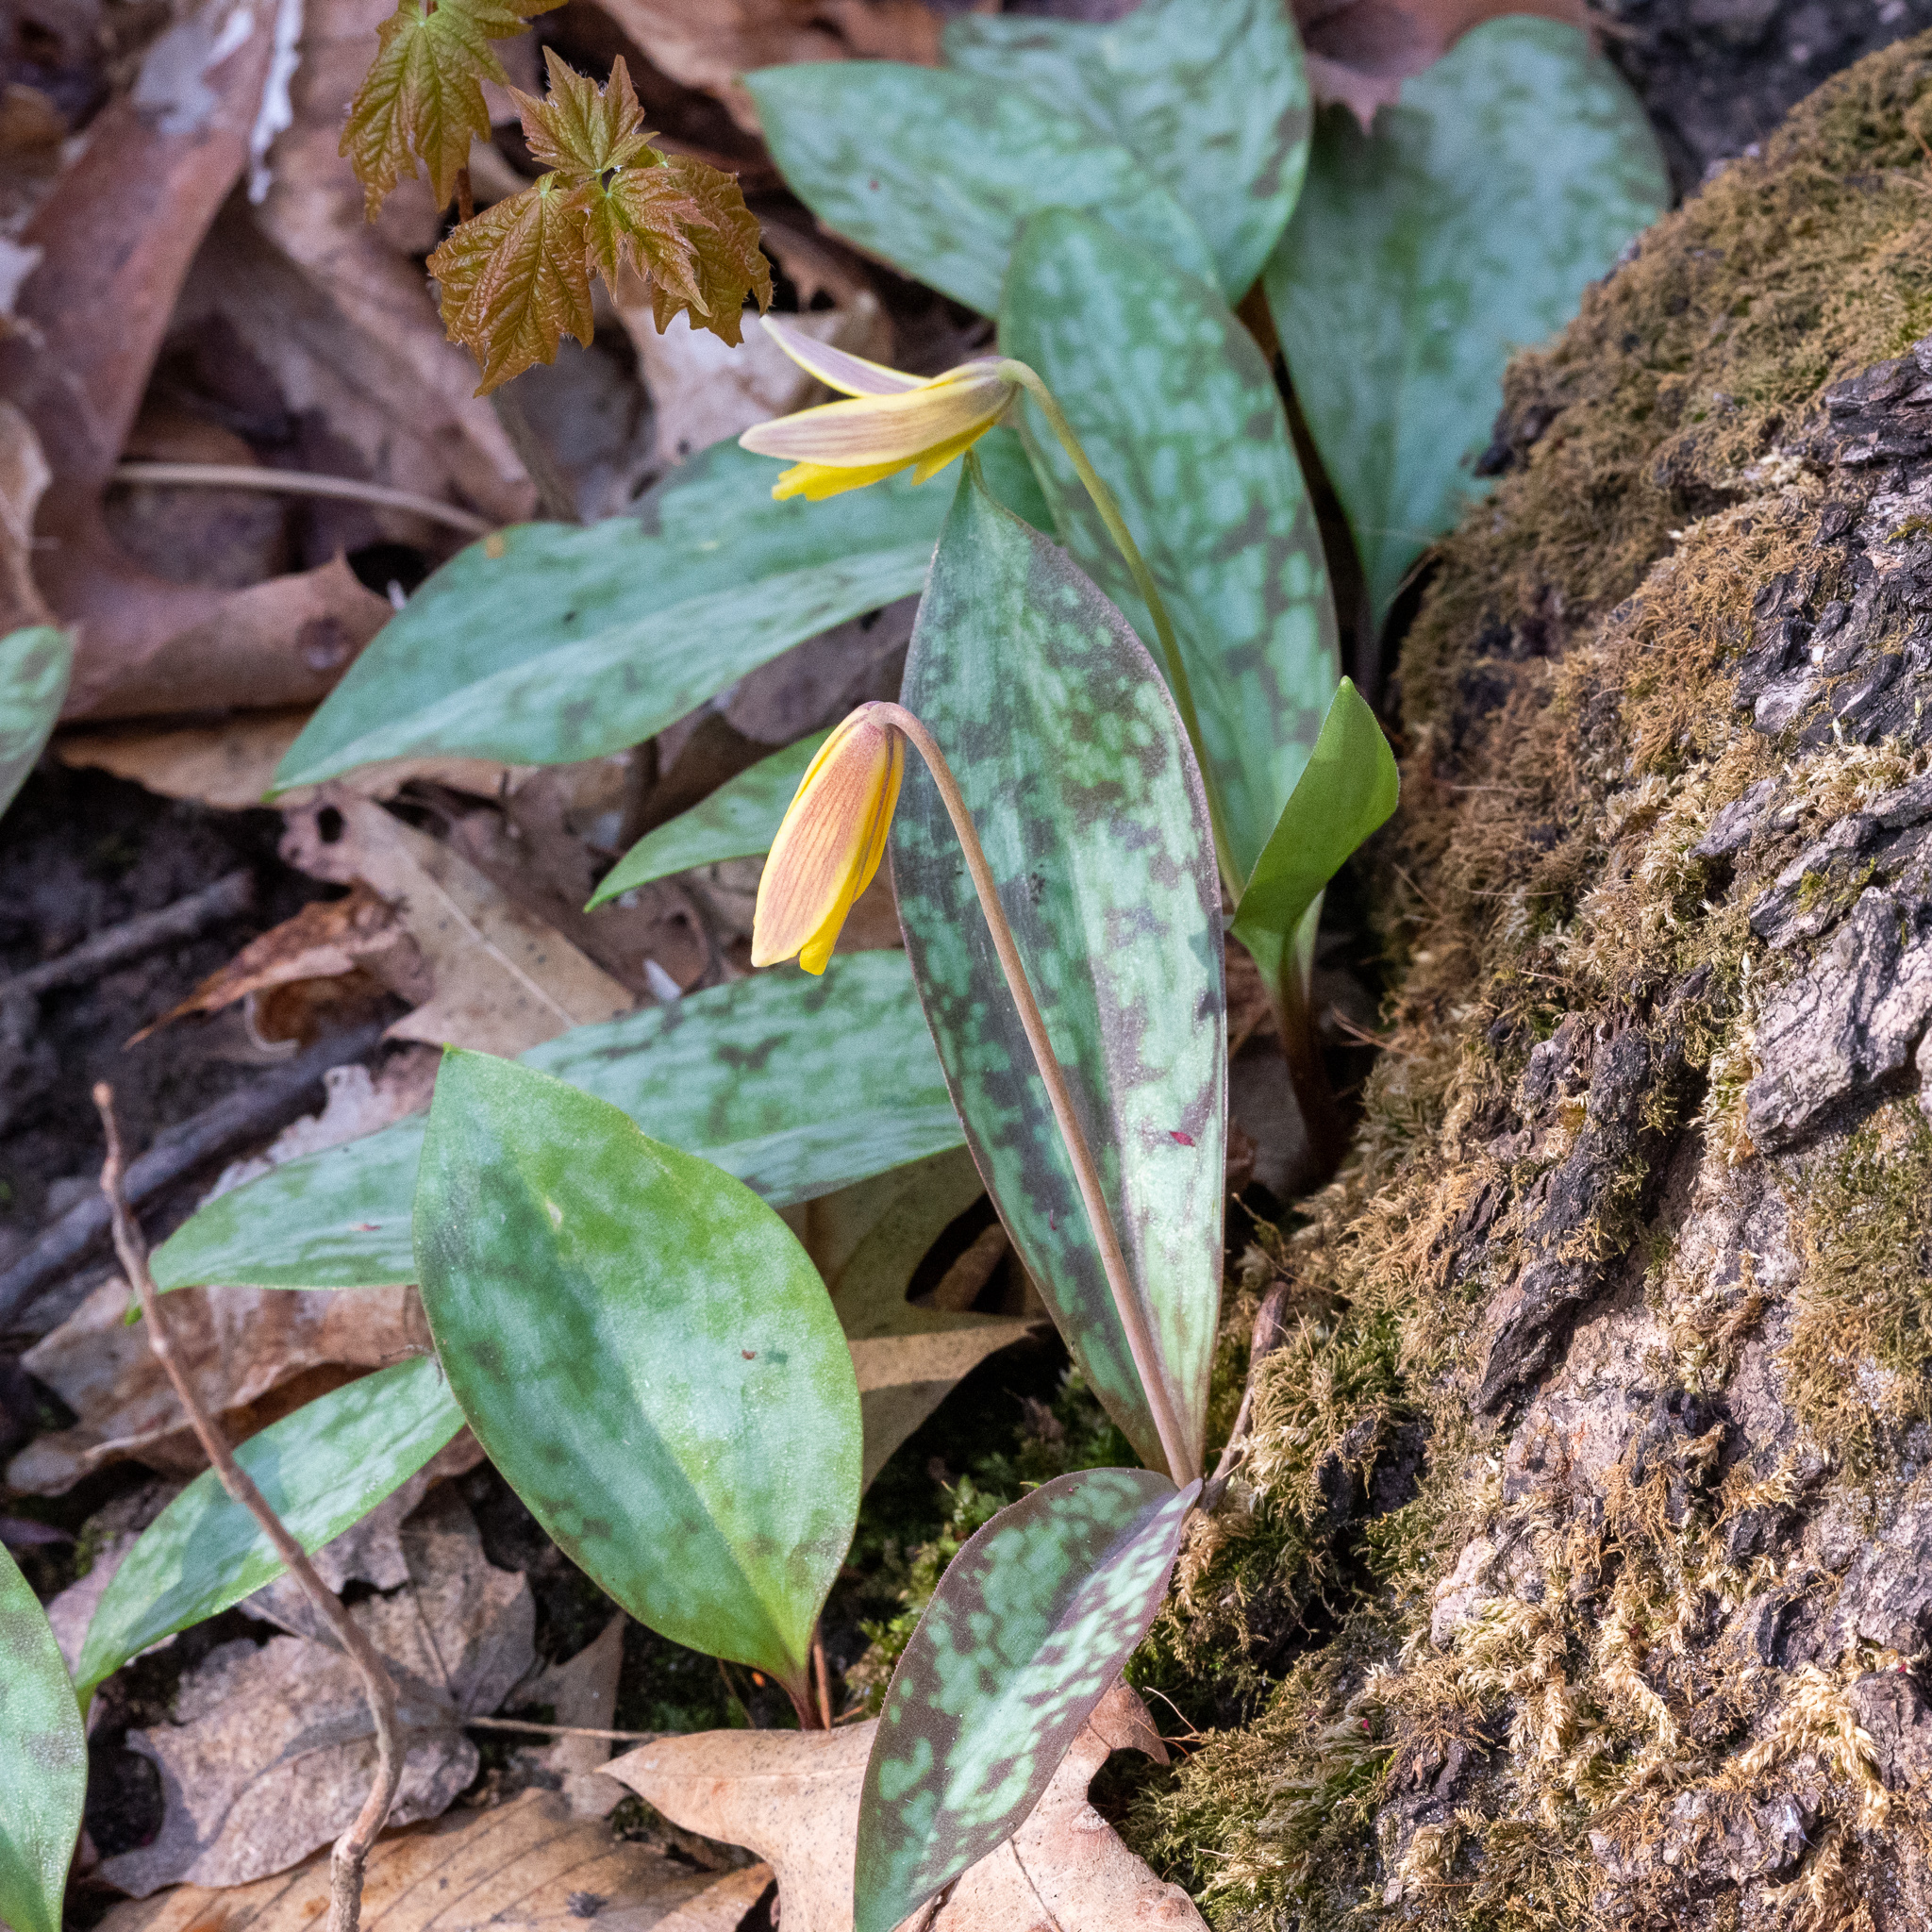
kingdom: Plantae
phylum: Tracheophyta
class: Liliopsida
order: Liliales
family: Liliaceae
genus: Erythronium
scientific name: Erythronium americanum
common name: Yellow adder's-tongue
